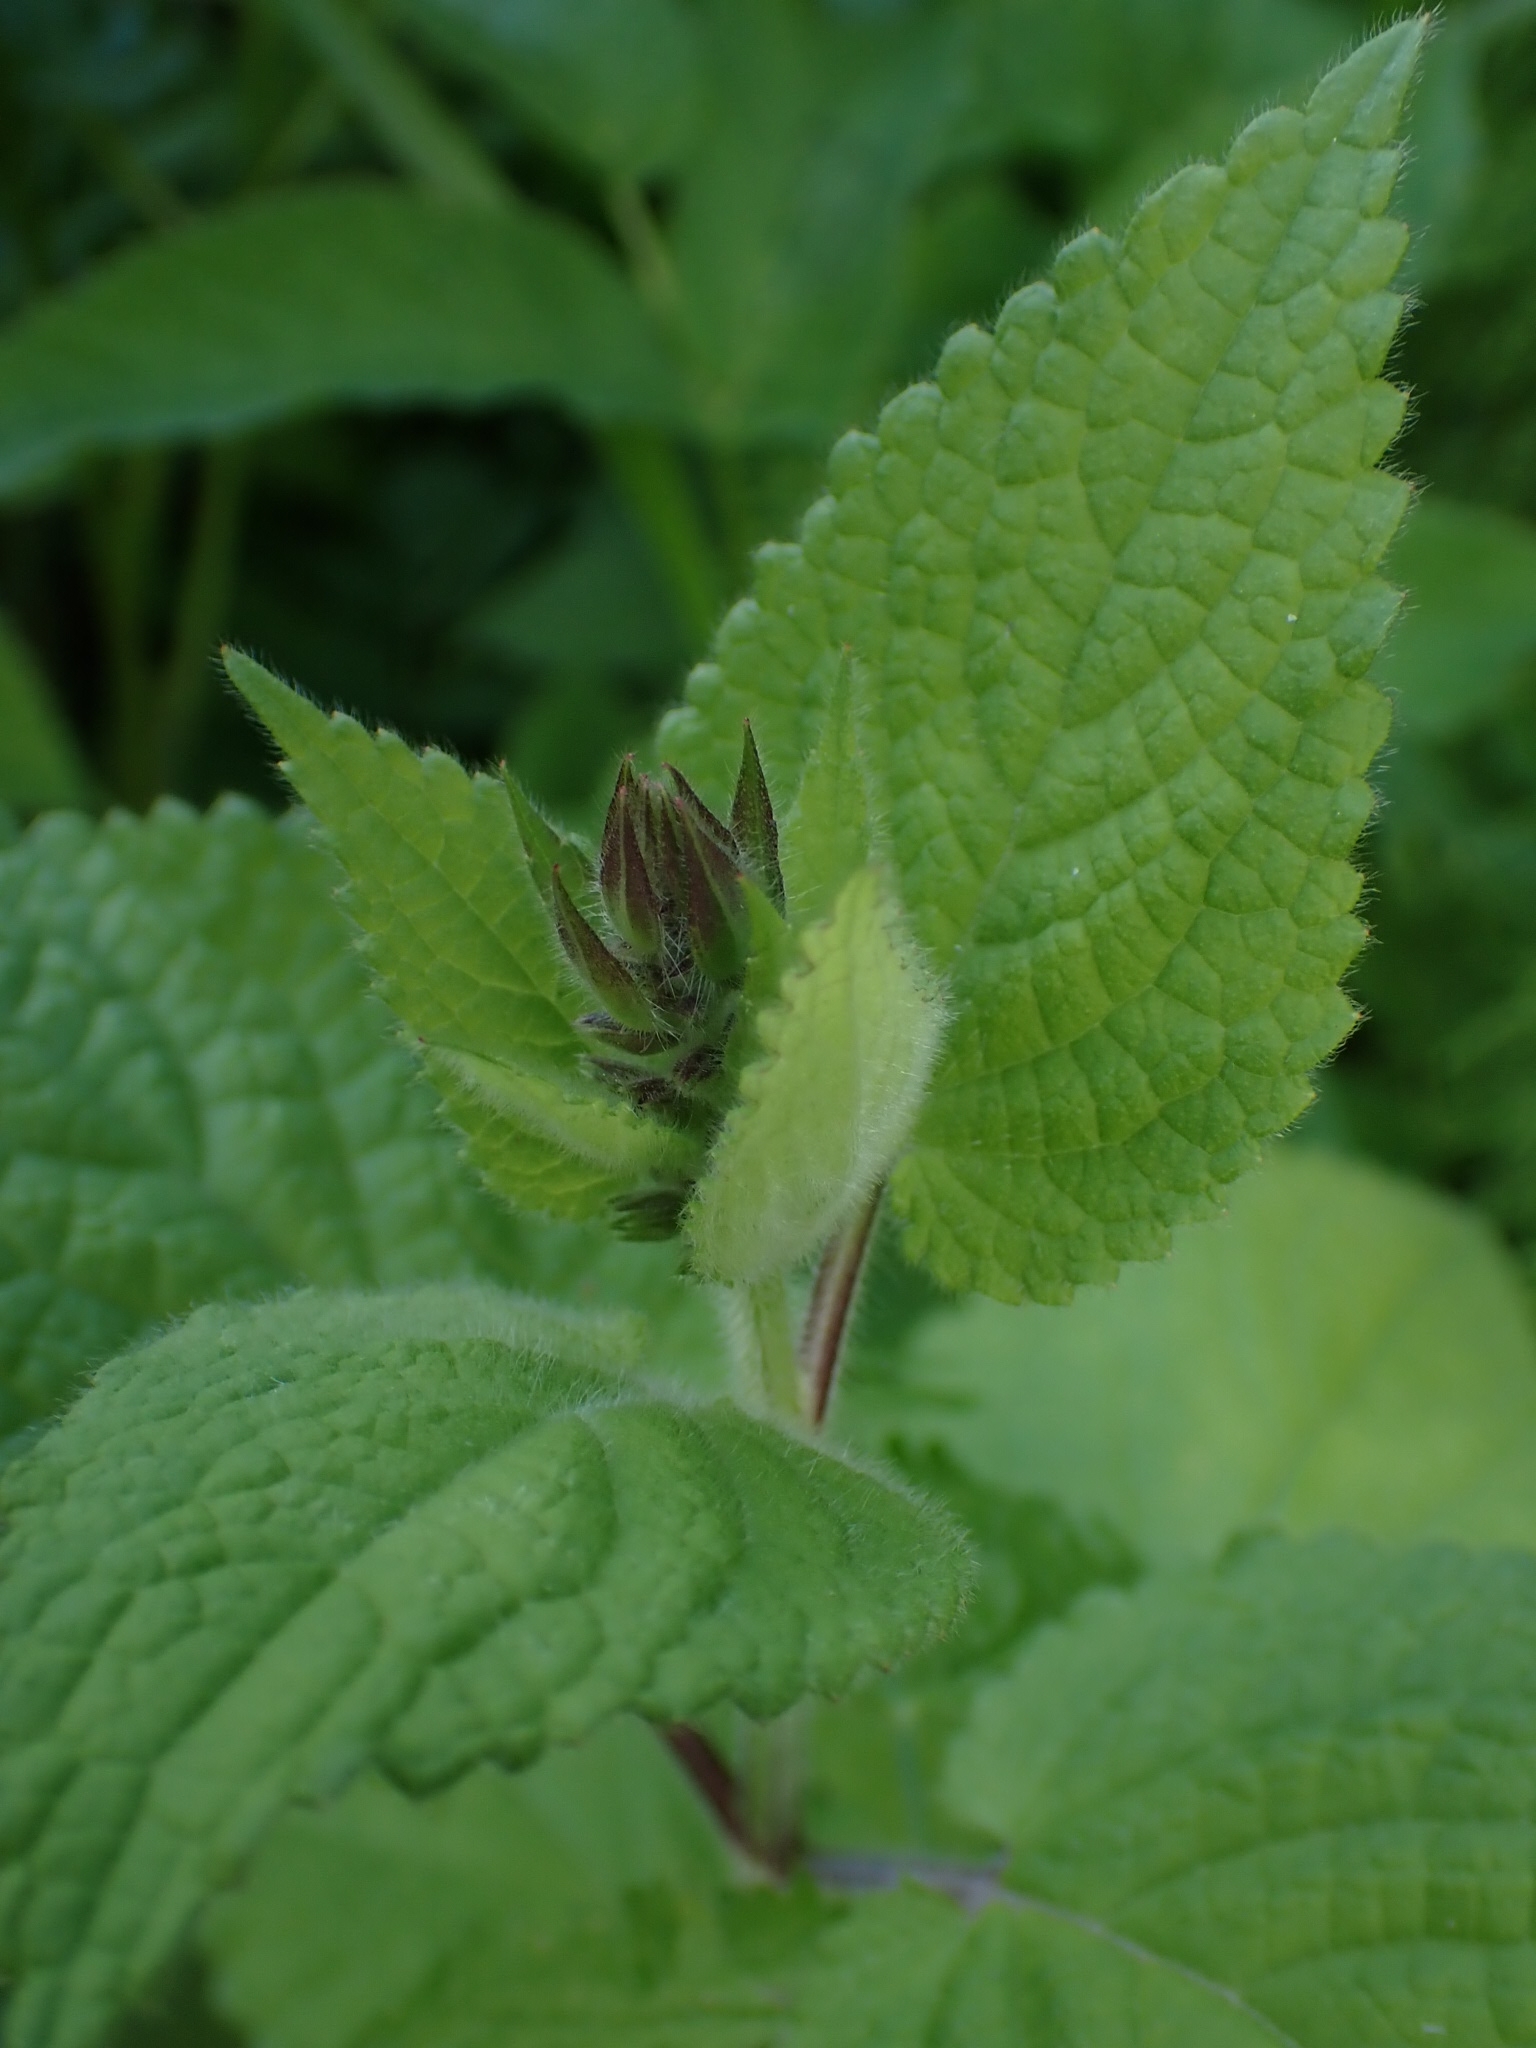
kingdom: Plantae
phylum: Tracheophyta
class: Magnoliopsida
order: Rosales
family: Rosaceae
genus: Geum
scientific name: Geum aleppicum
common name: Yellow avens
